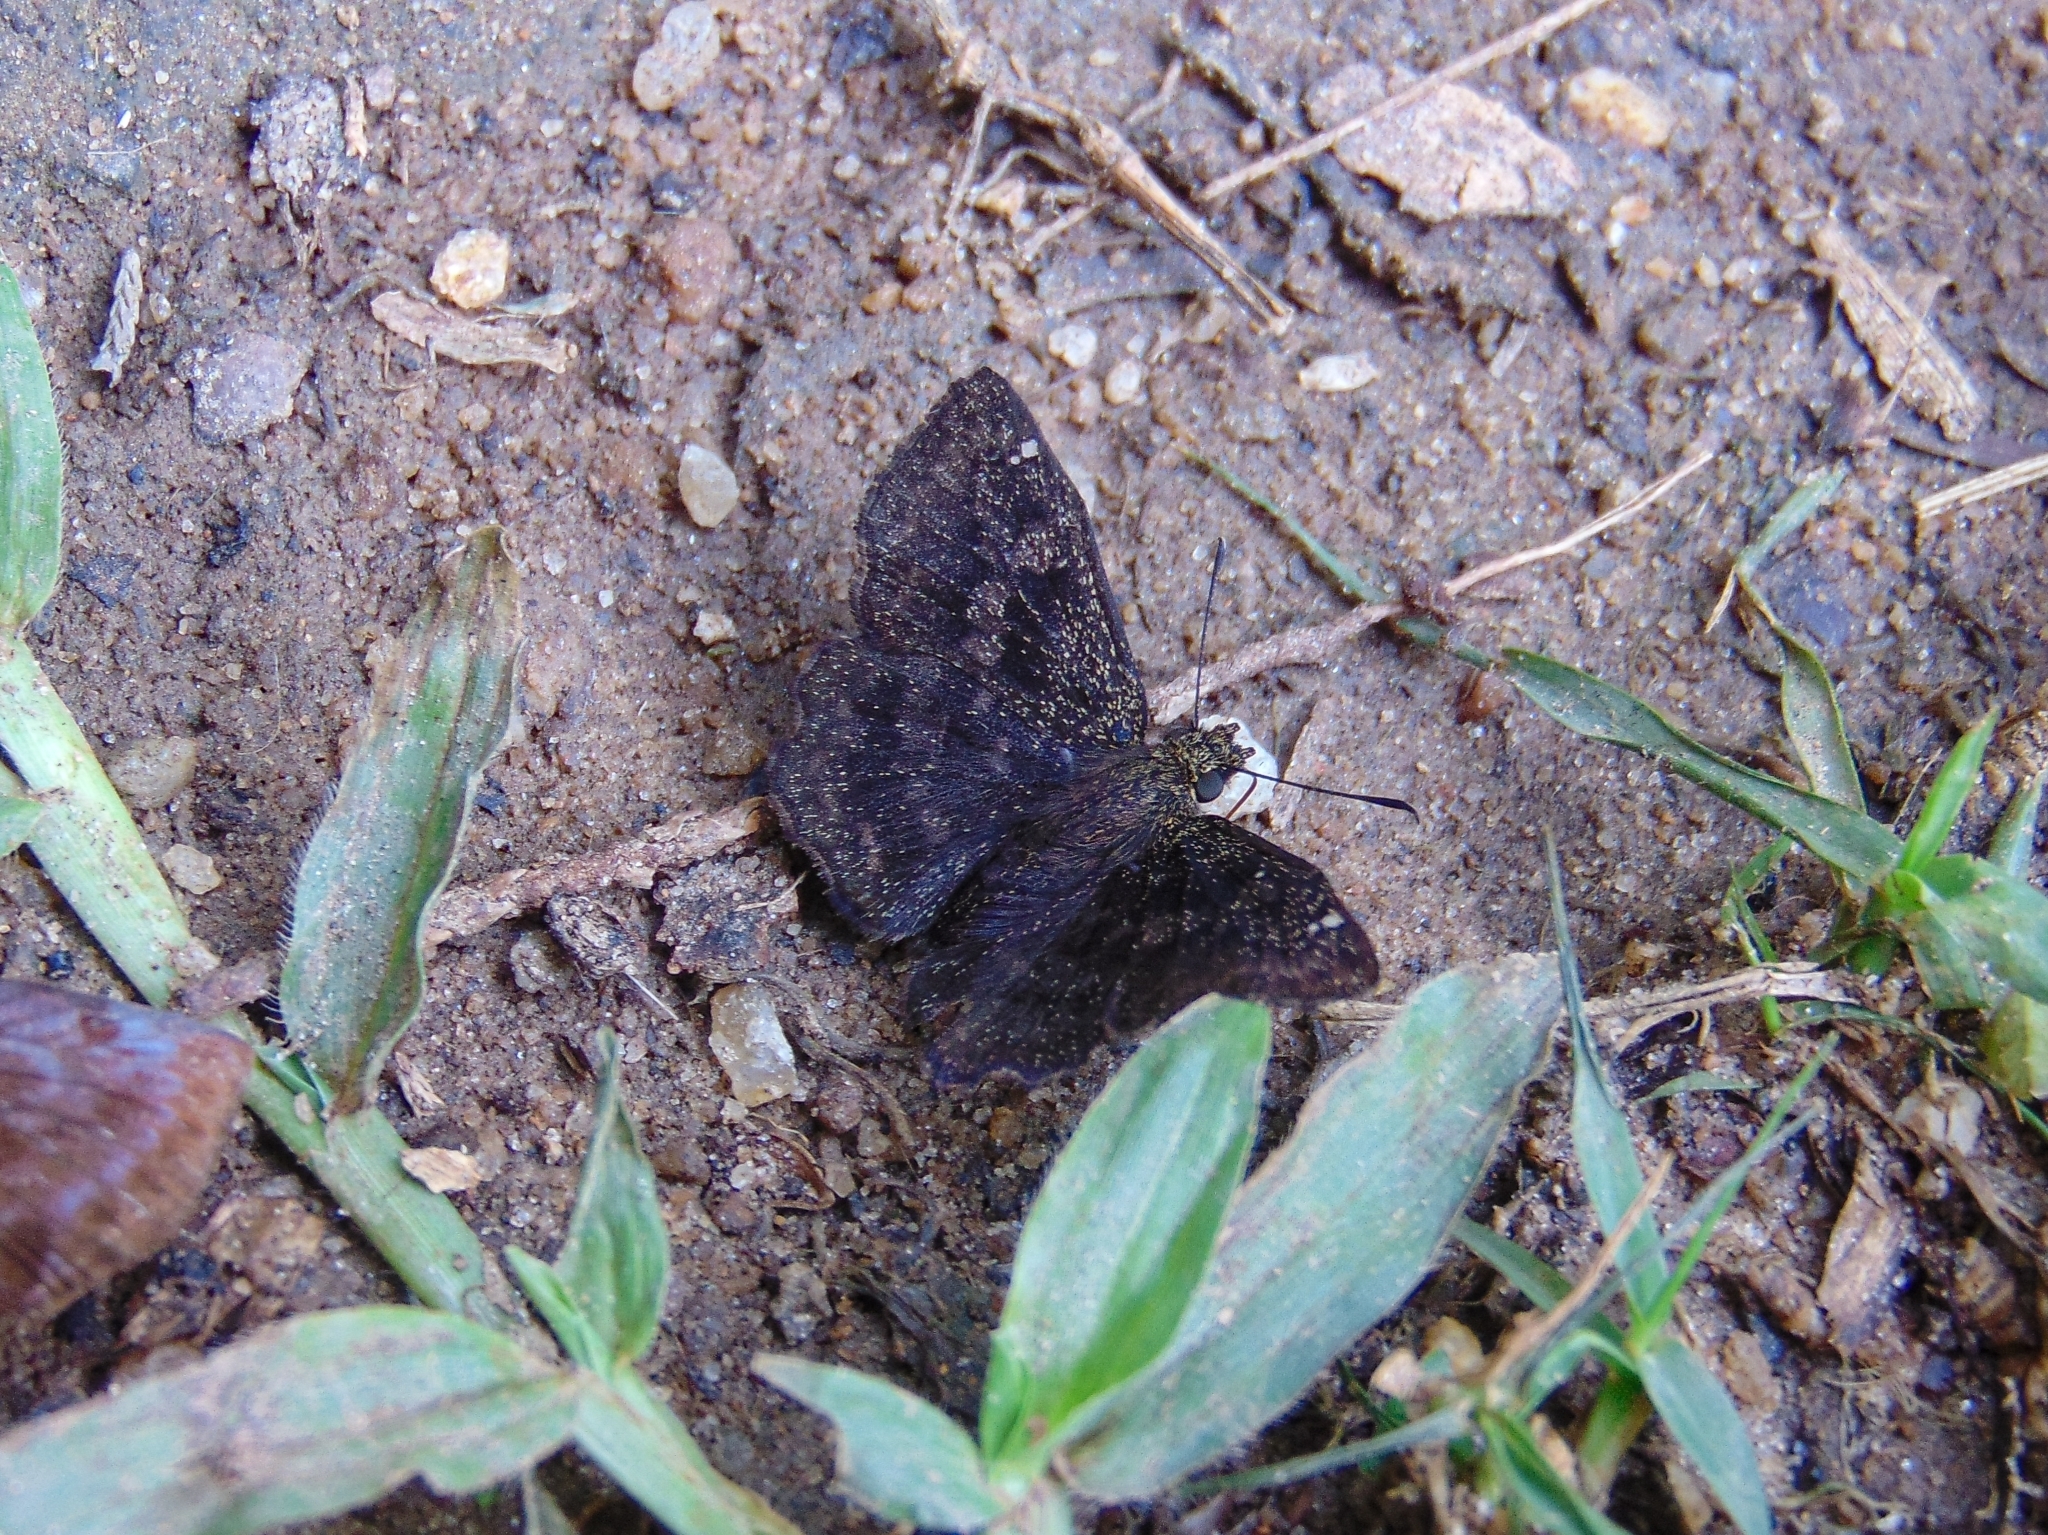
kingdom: Animalia
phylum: Arthropoda
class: Insecta
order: Lepidoptera
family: Hesperiidae
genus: Incisus
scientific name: Incisus
